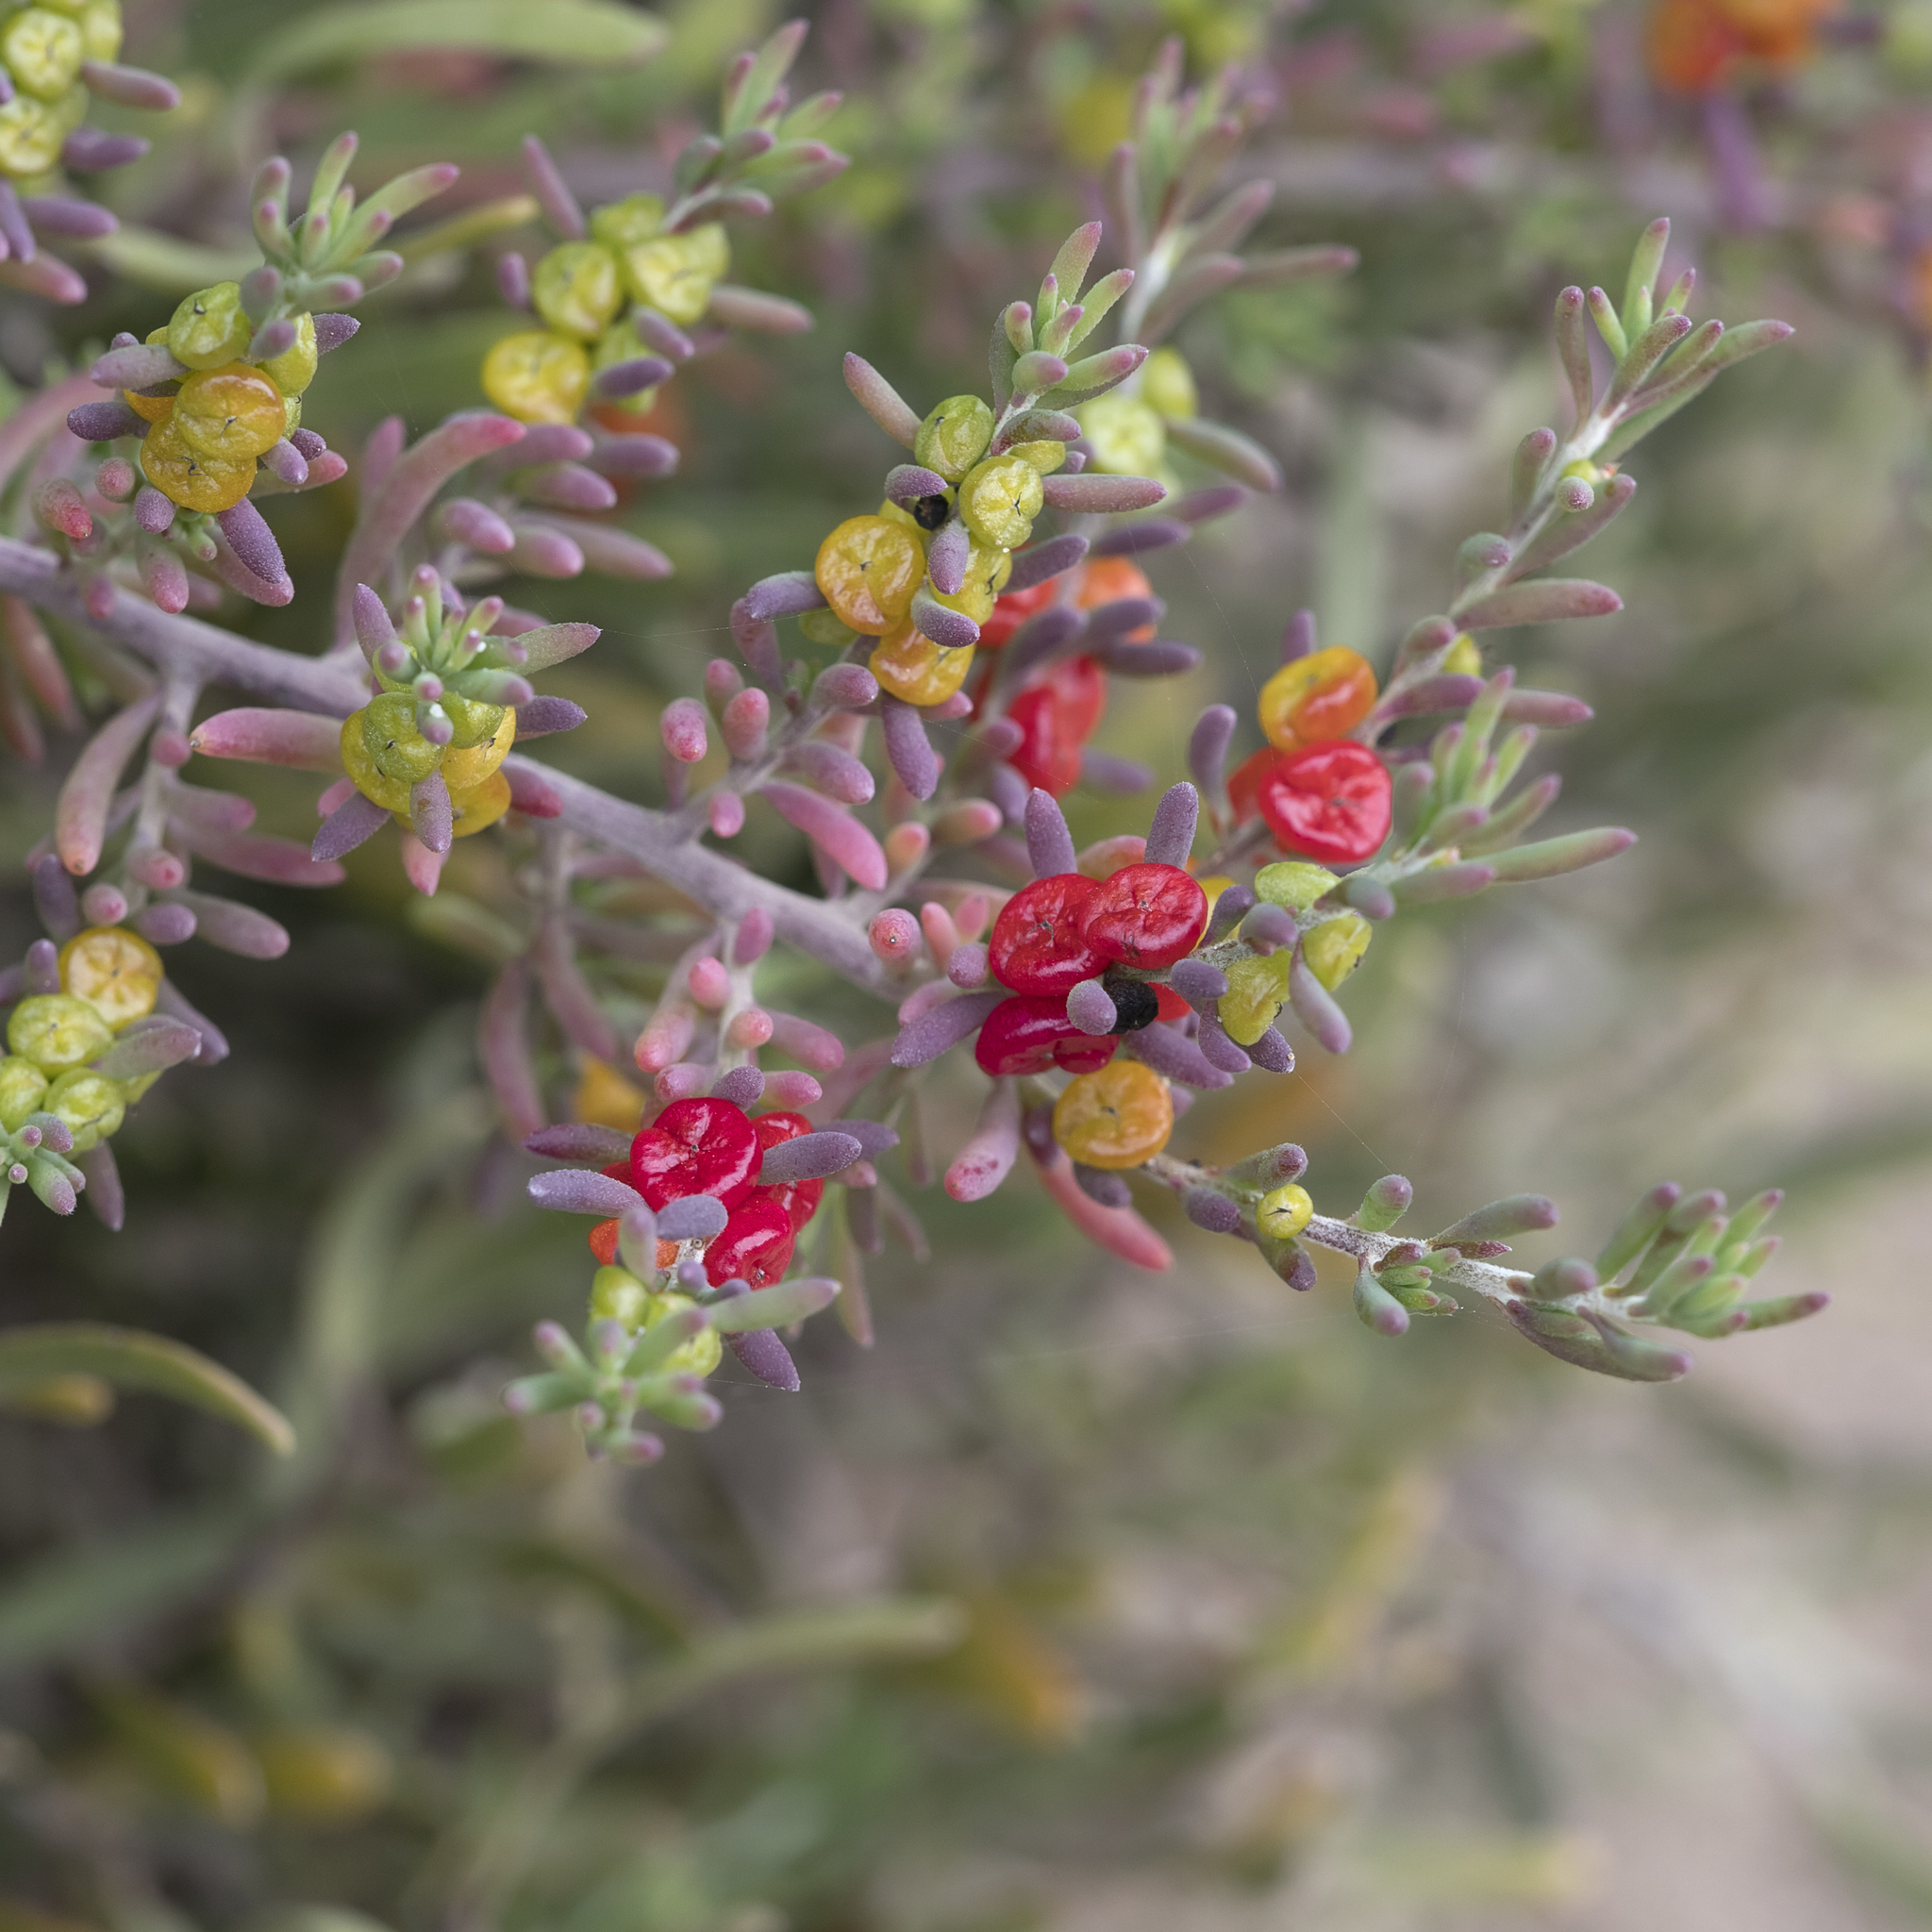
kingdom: Plantae
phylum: Tracheophyta
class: Magnoliopsida
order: Caryophyllales
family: Amaranthaceae
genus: Enchylaena
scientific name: Enchylaena tomentosa
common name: Ruby saltbush
